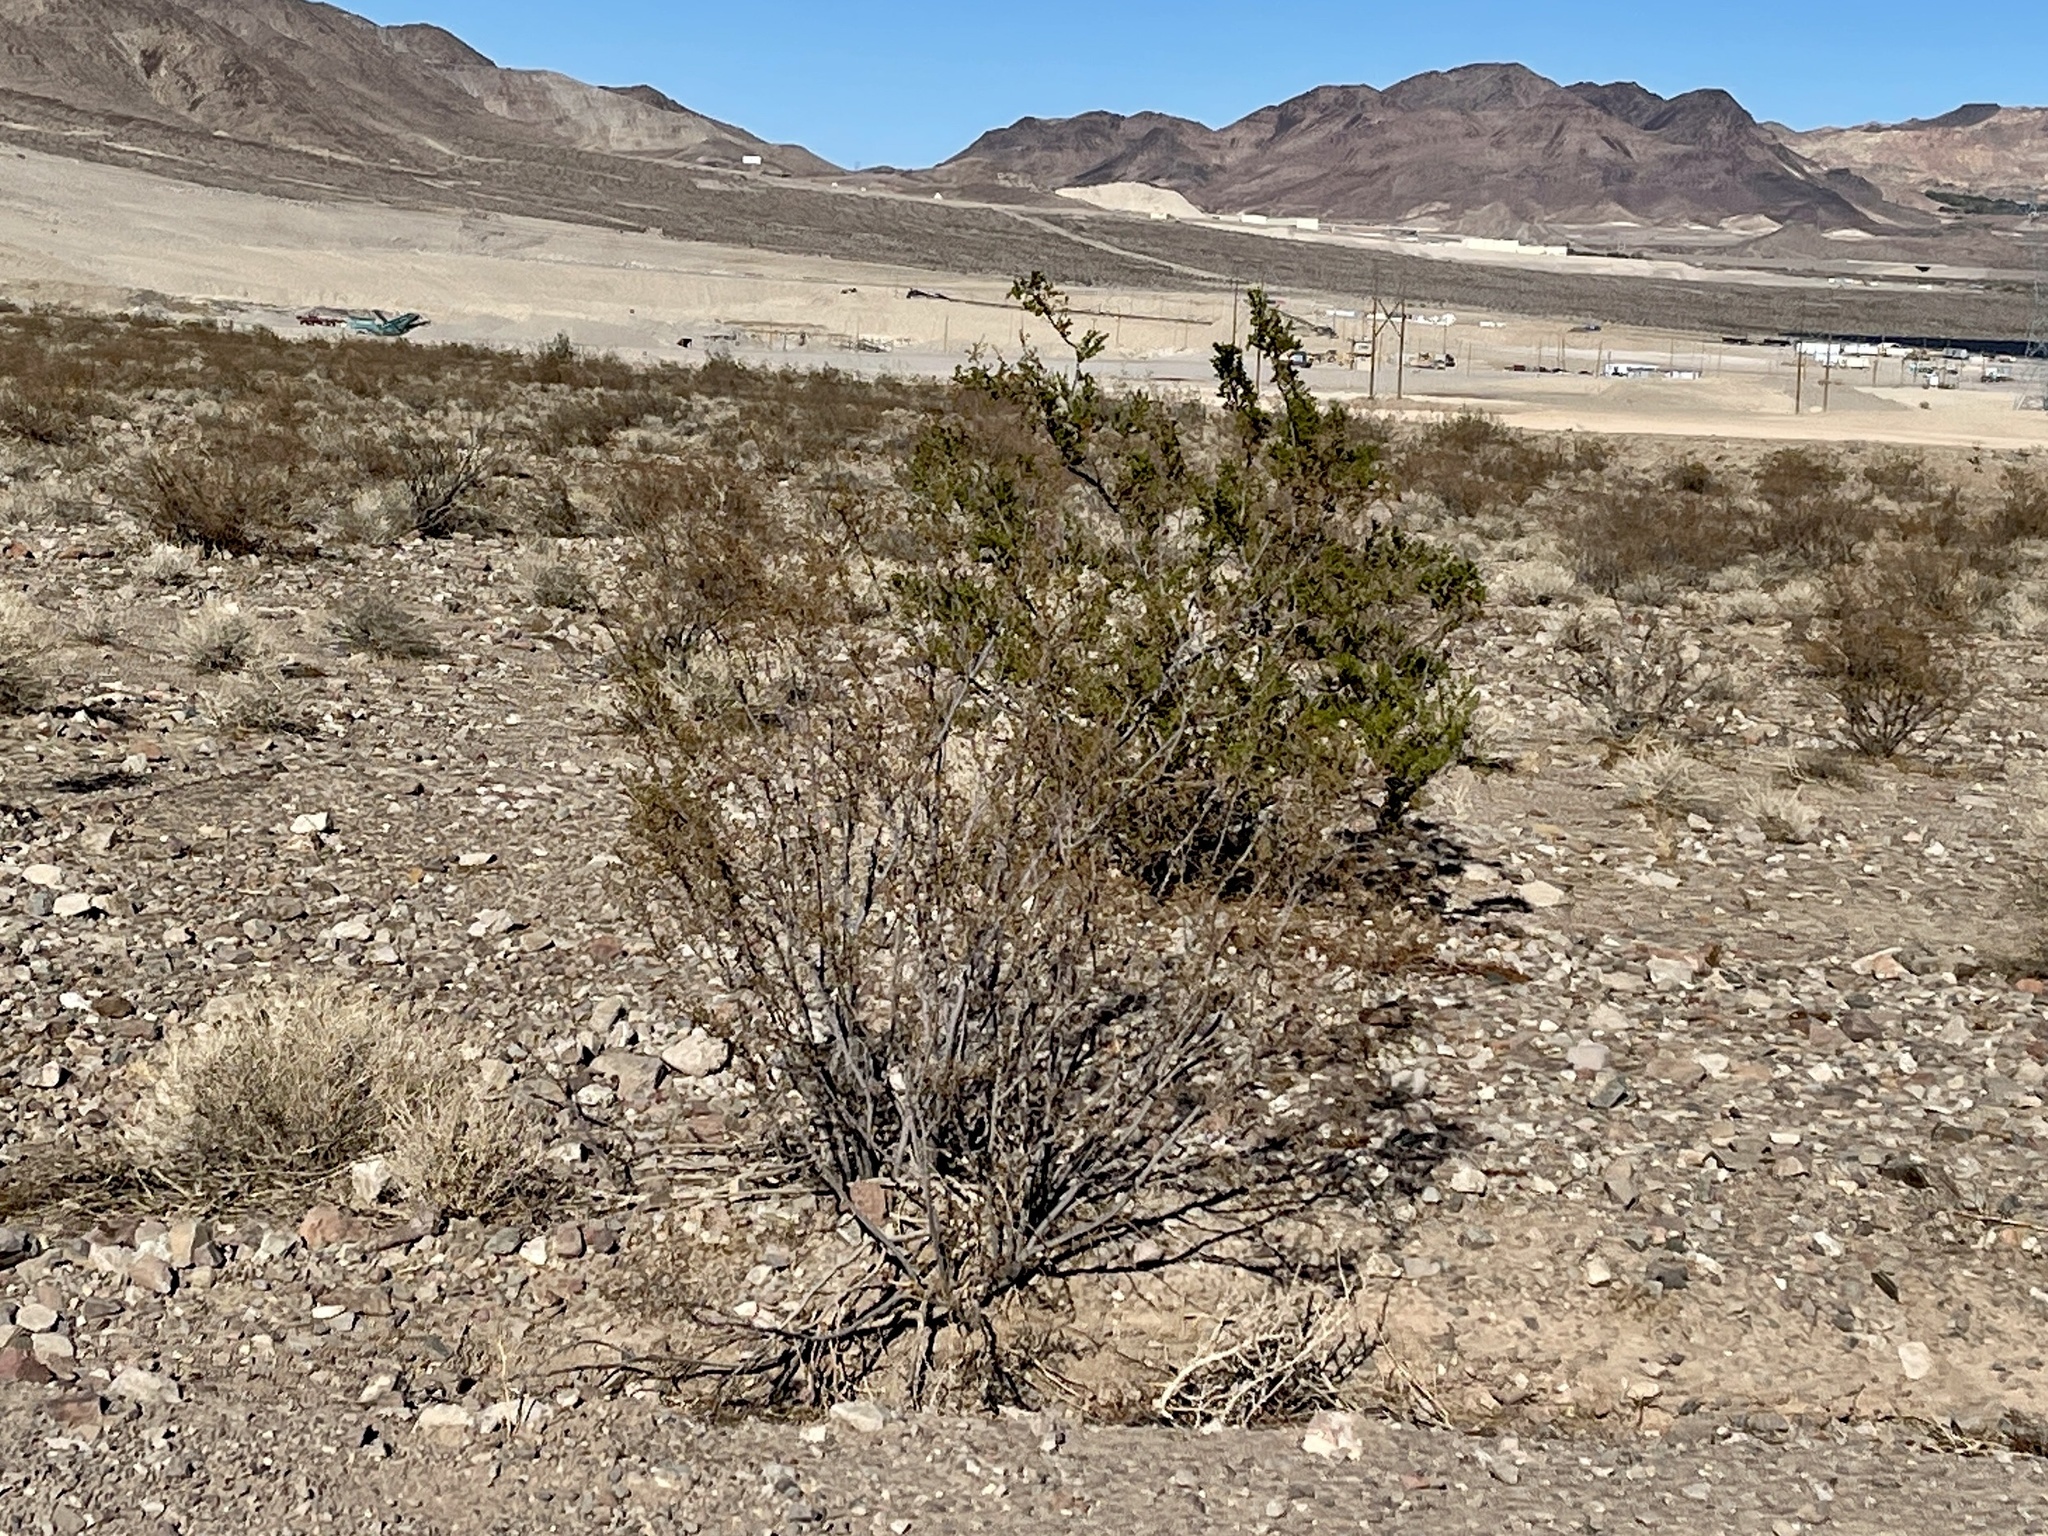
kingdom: Plantae
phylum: Tracheophyta
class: Magnoliopsida
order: Zygophyllales
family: Zygophyllaceae
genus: Larrea
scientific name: Larrea tridentata
